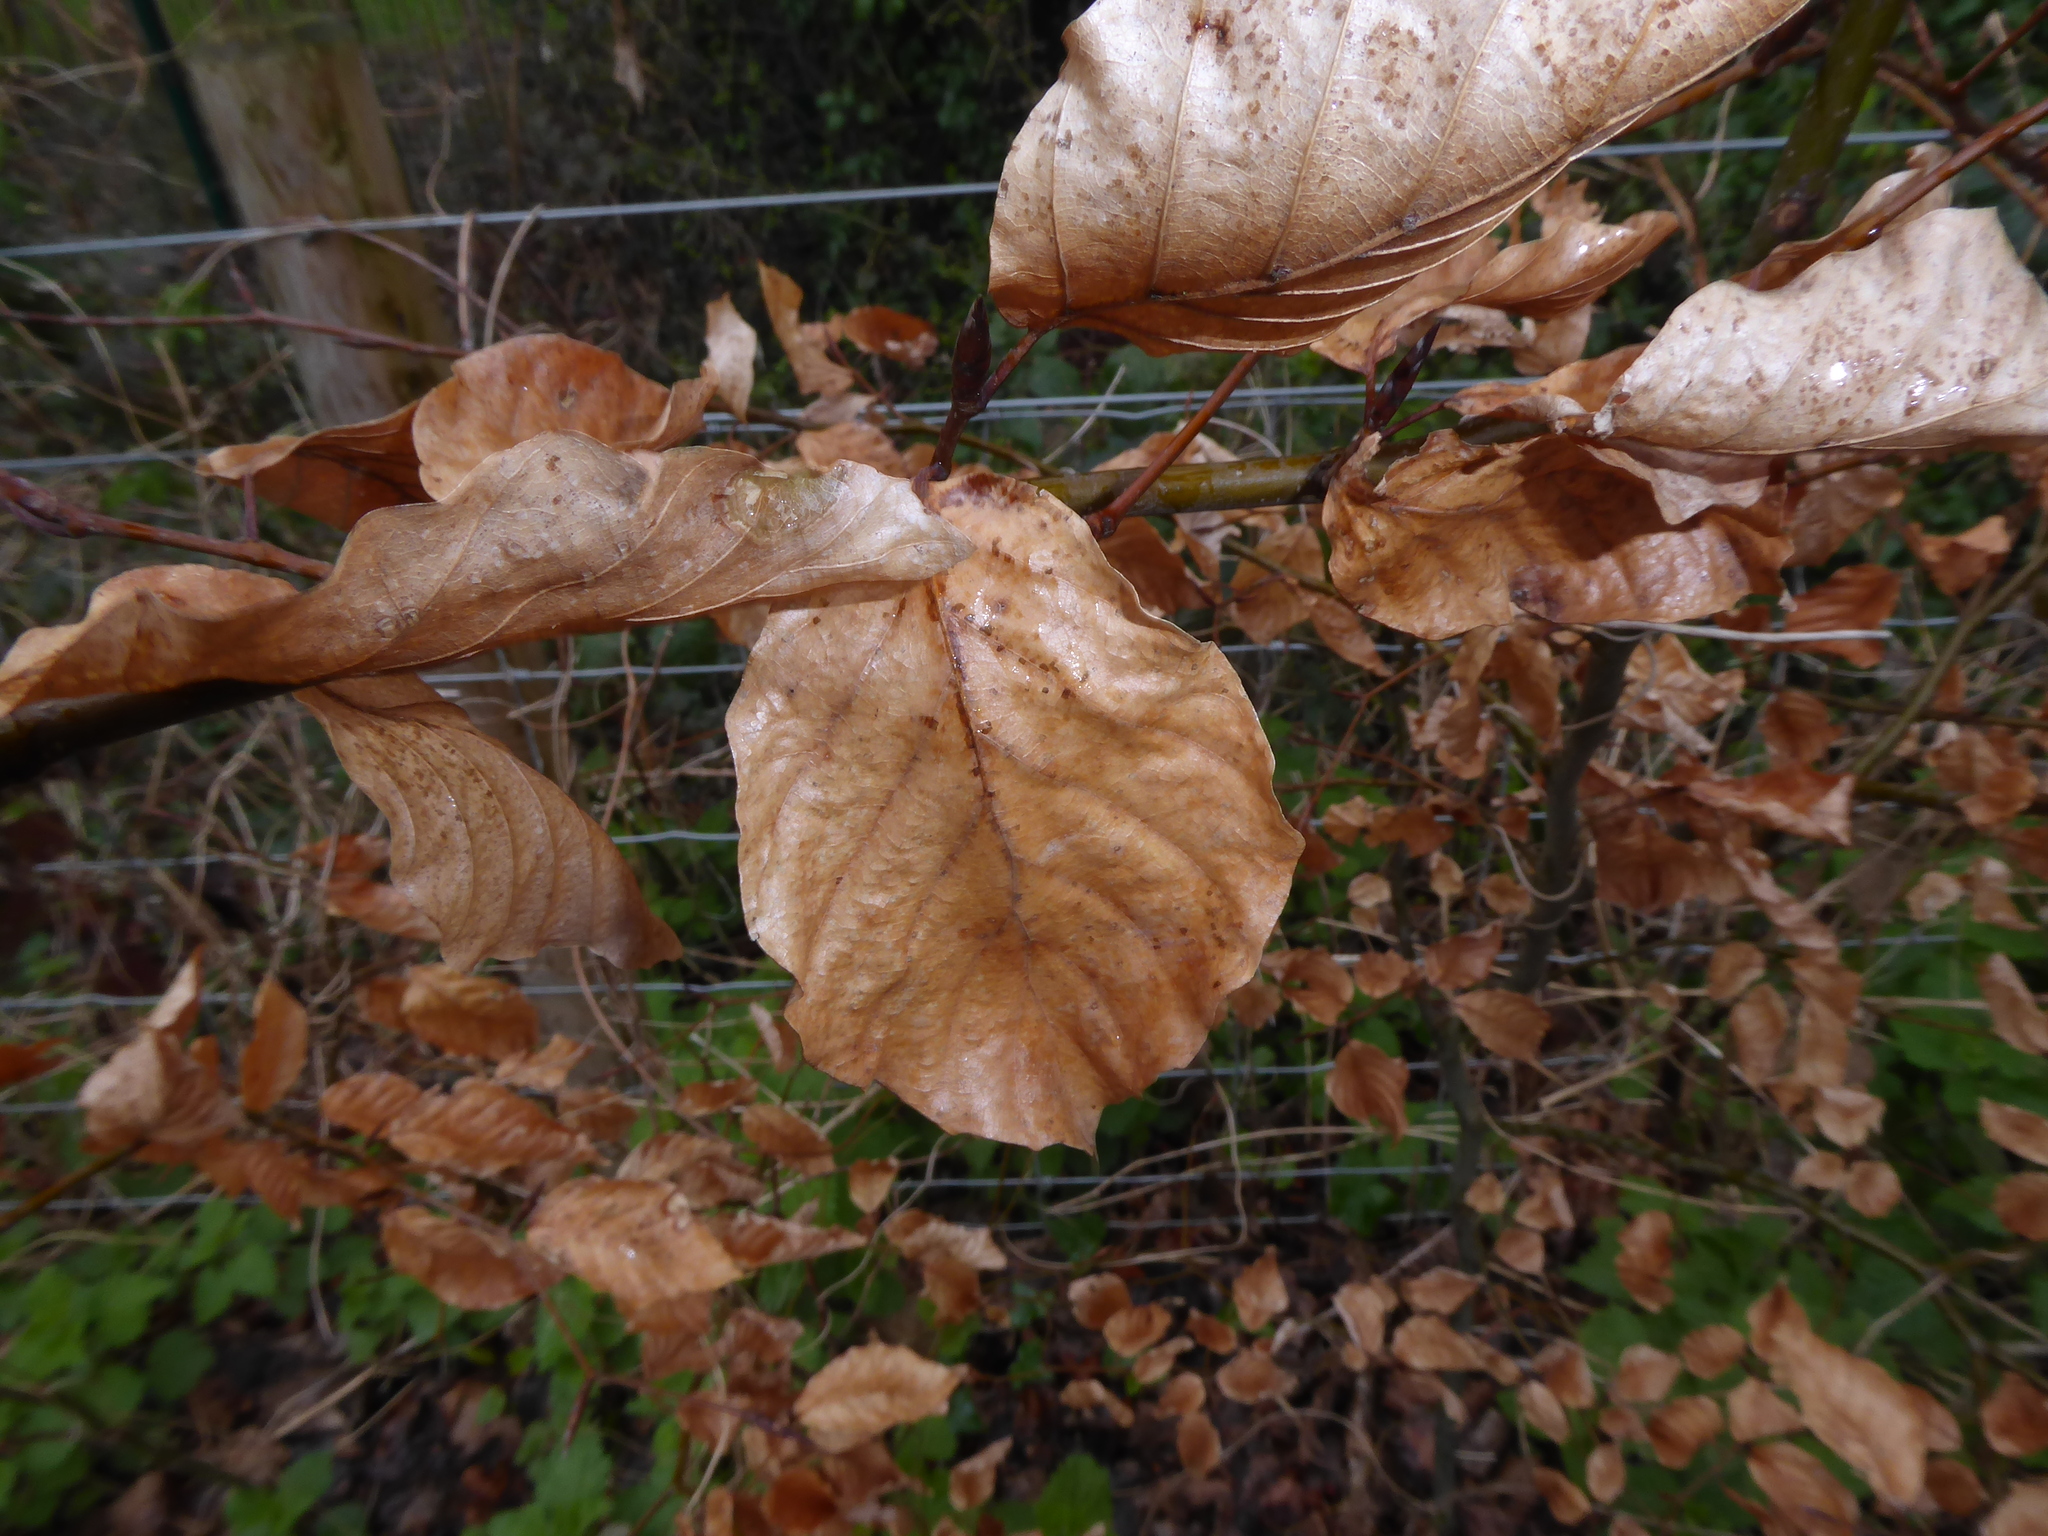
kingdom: Plantae
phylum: Tracheophyta
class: Magnoliopsida
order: Fagales
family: Fagaceae
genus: Fagus
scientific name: Fagus sylvatica
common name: Beech
